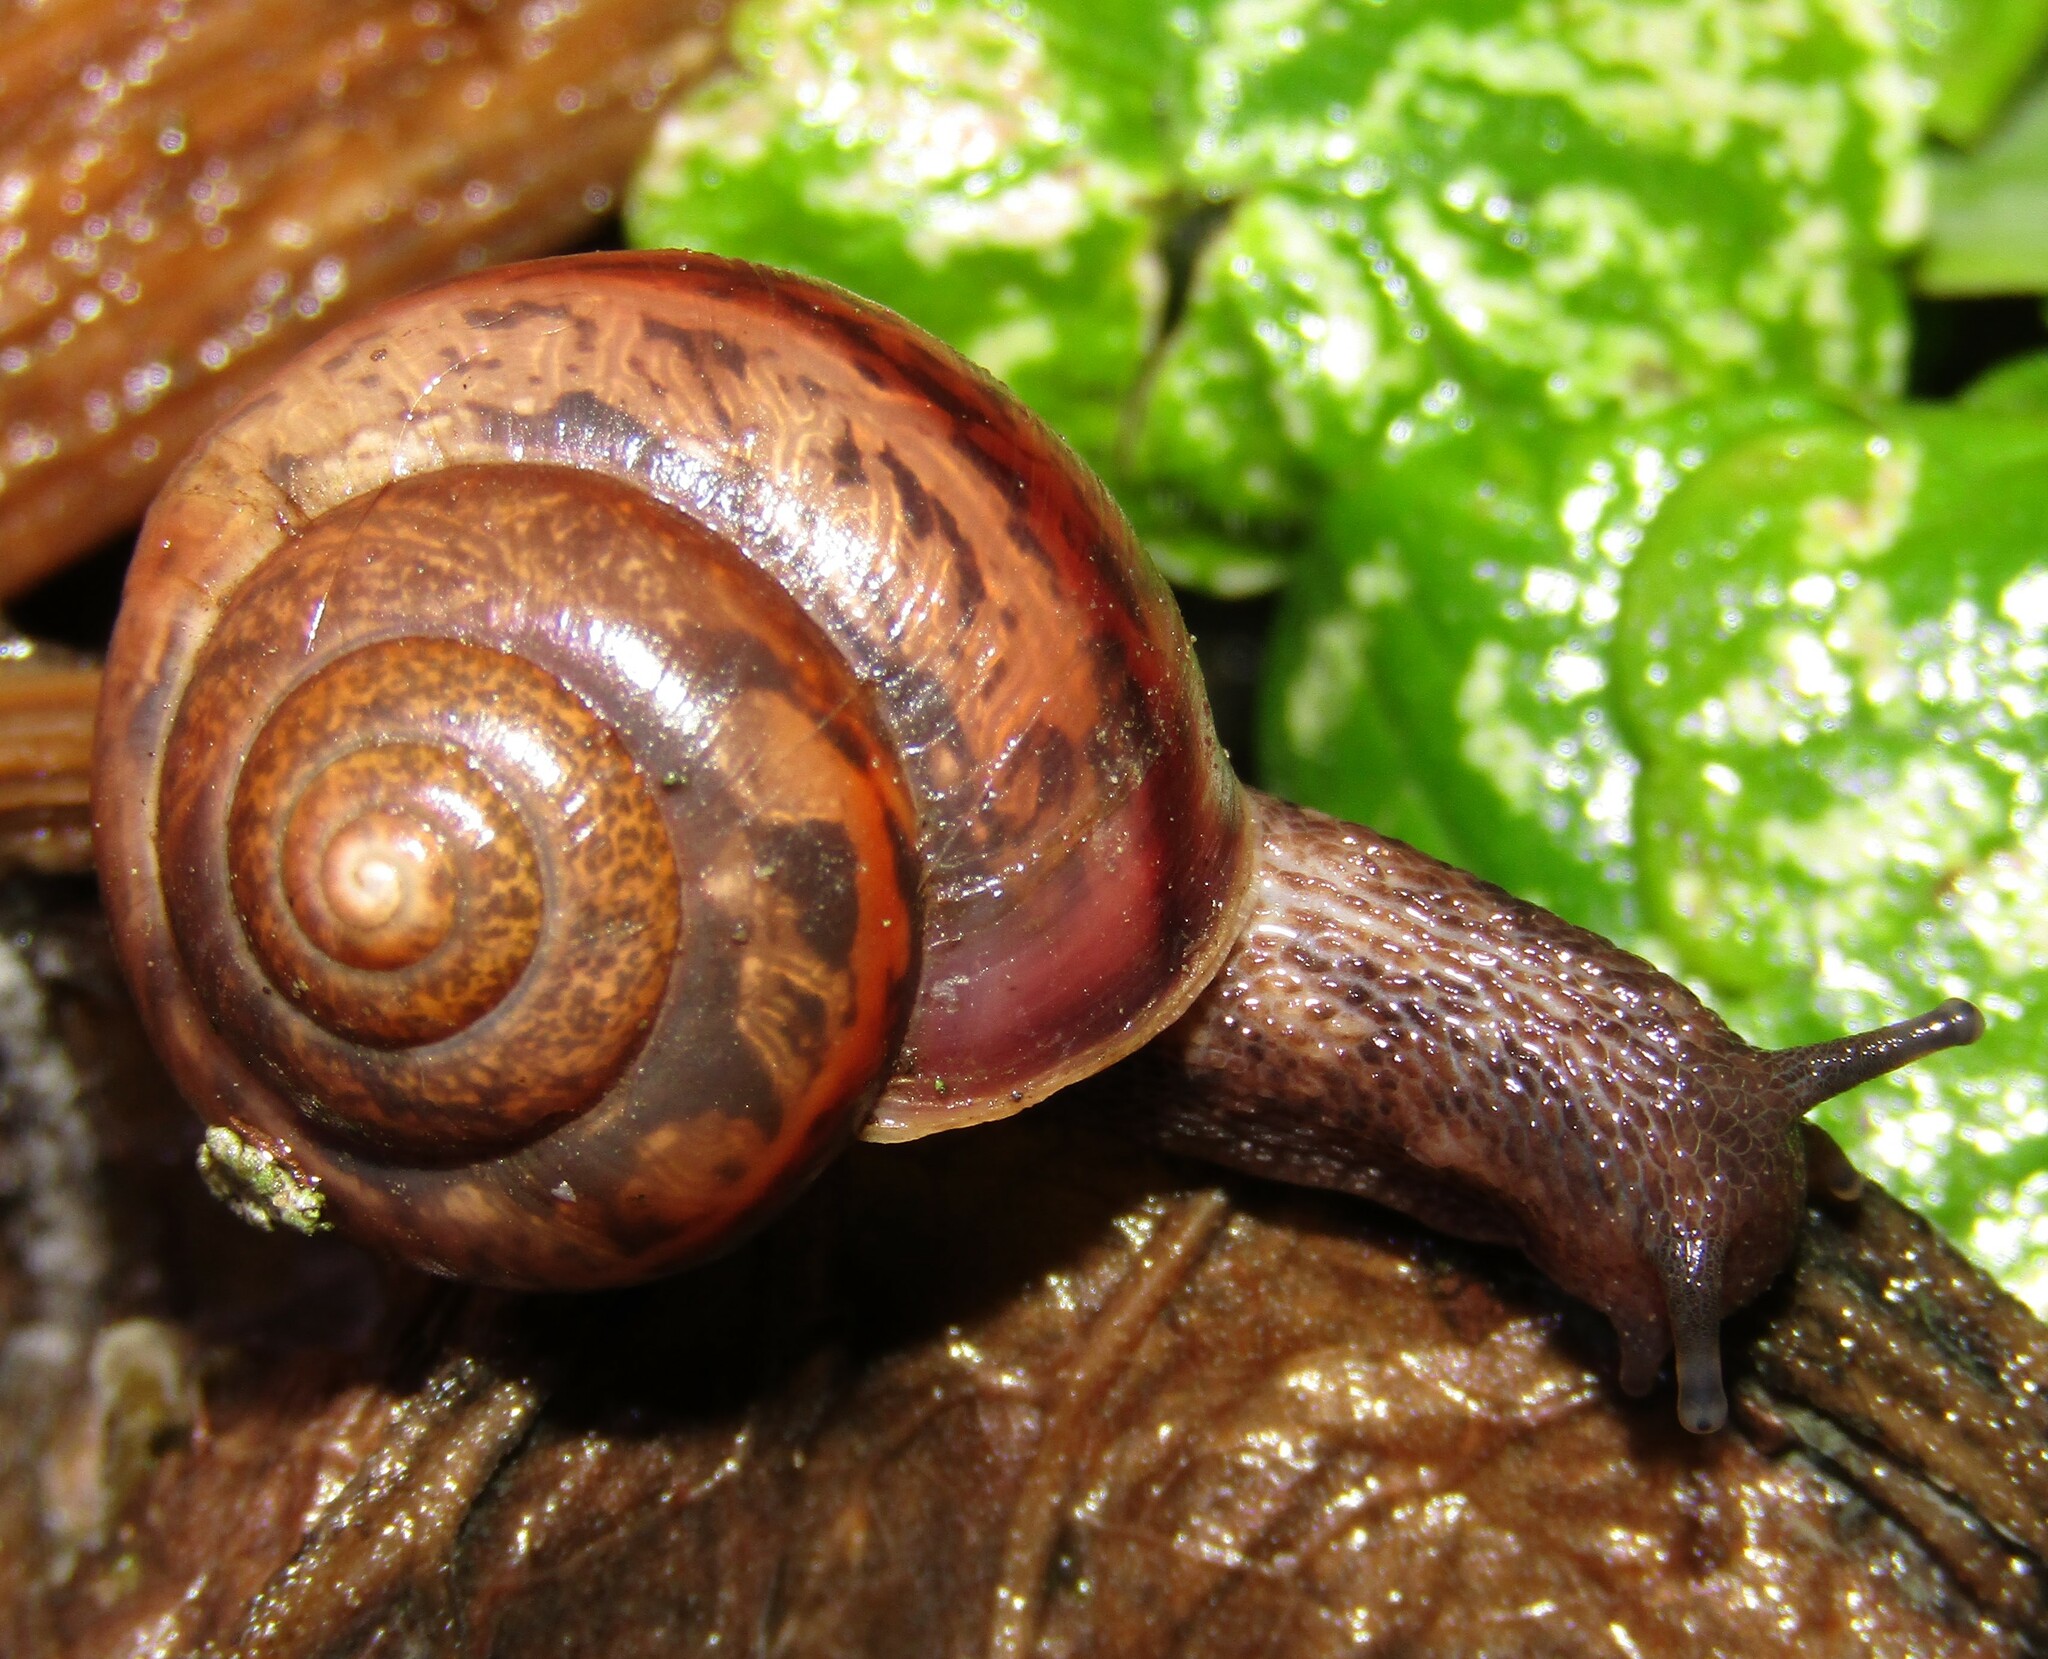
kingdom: Animalia
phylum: Mollusca
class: Gastropoda
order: Stylommatophora
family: Camaenidae
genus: Fruticicola
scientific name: Fruticicola fruticum
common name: Bush snail
